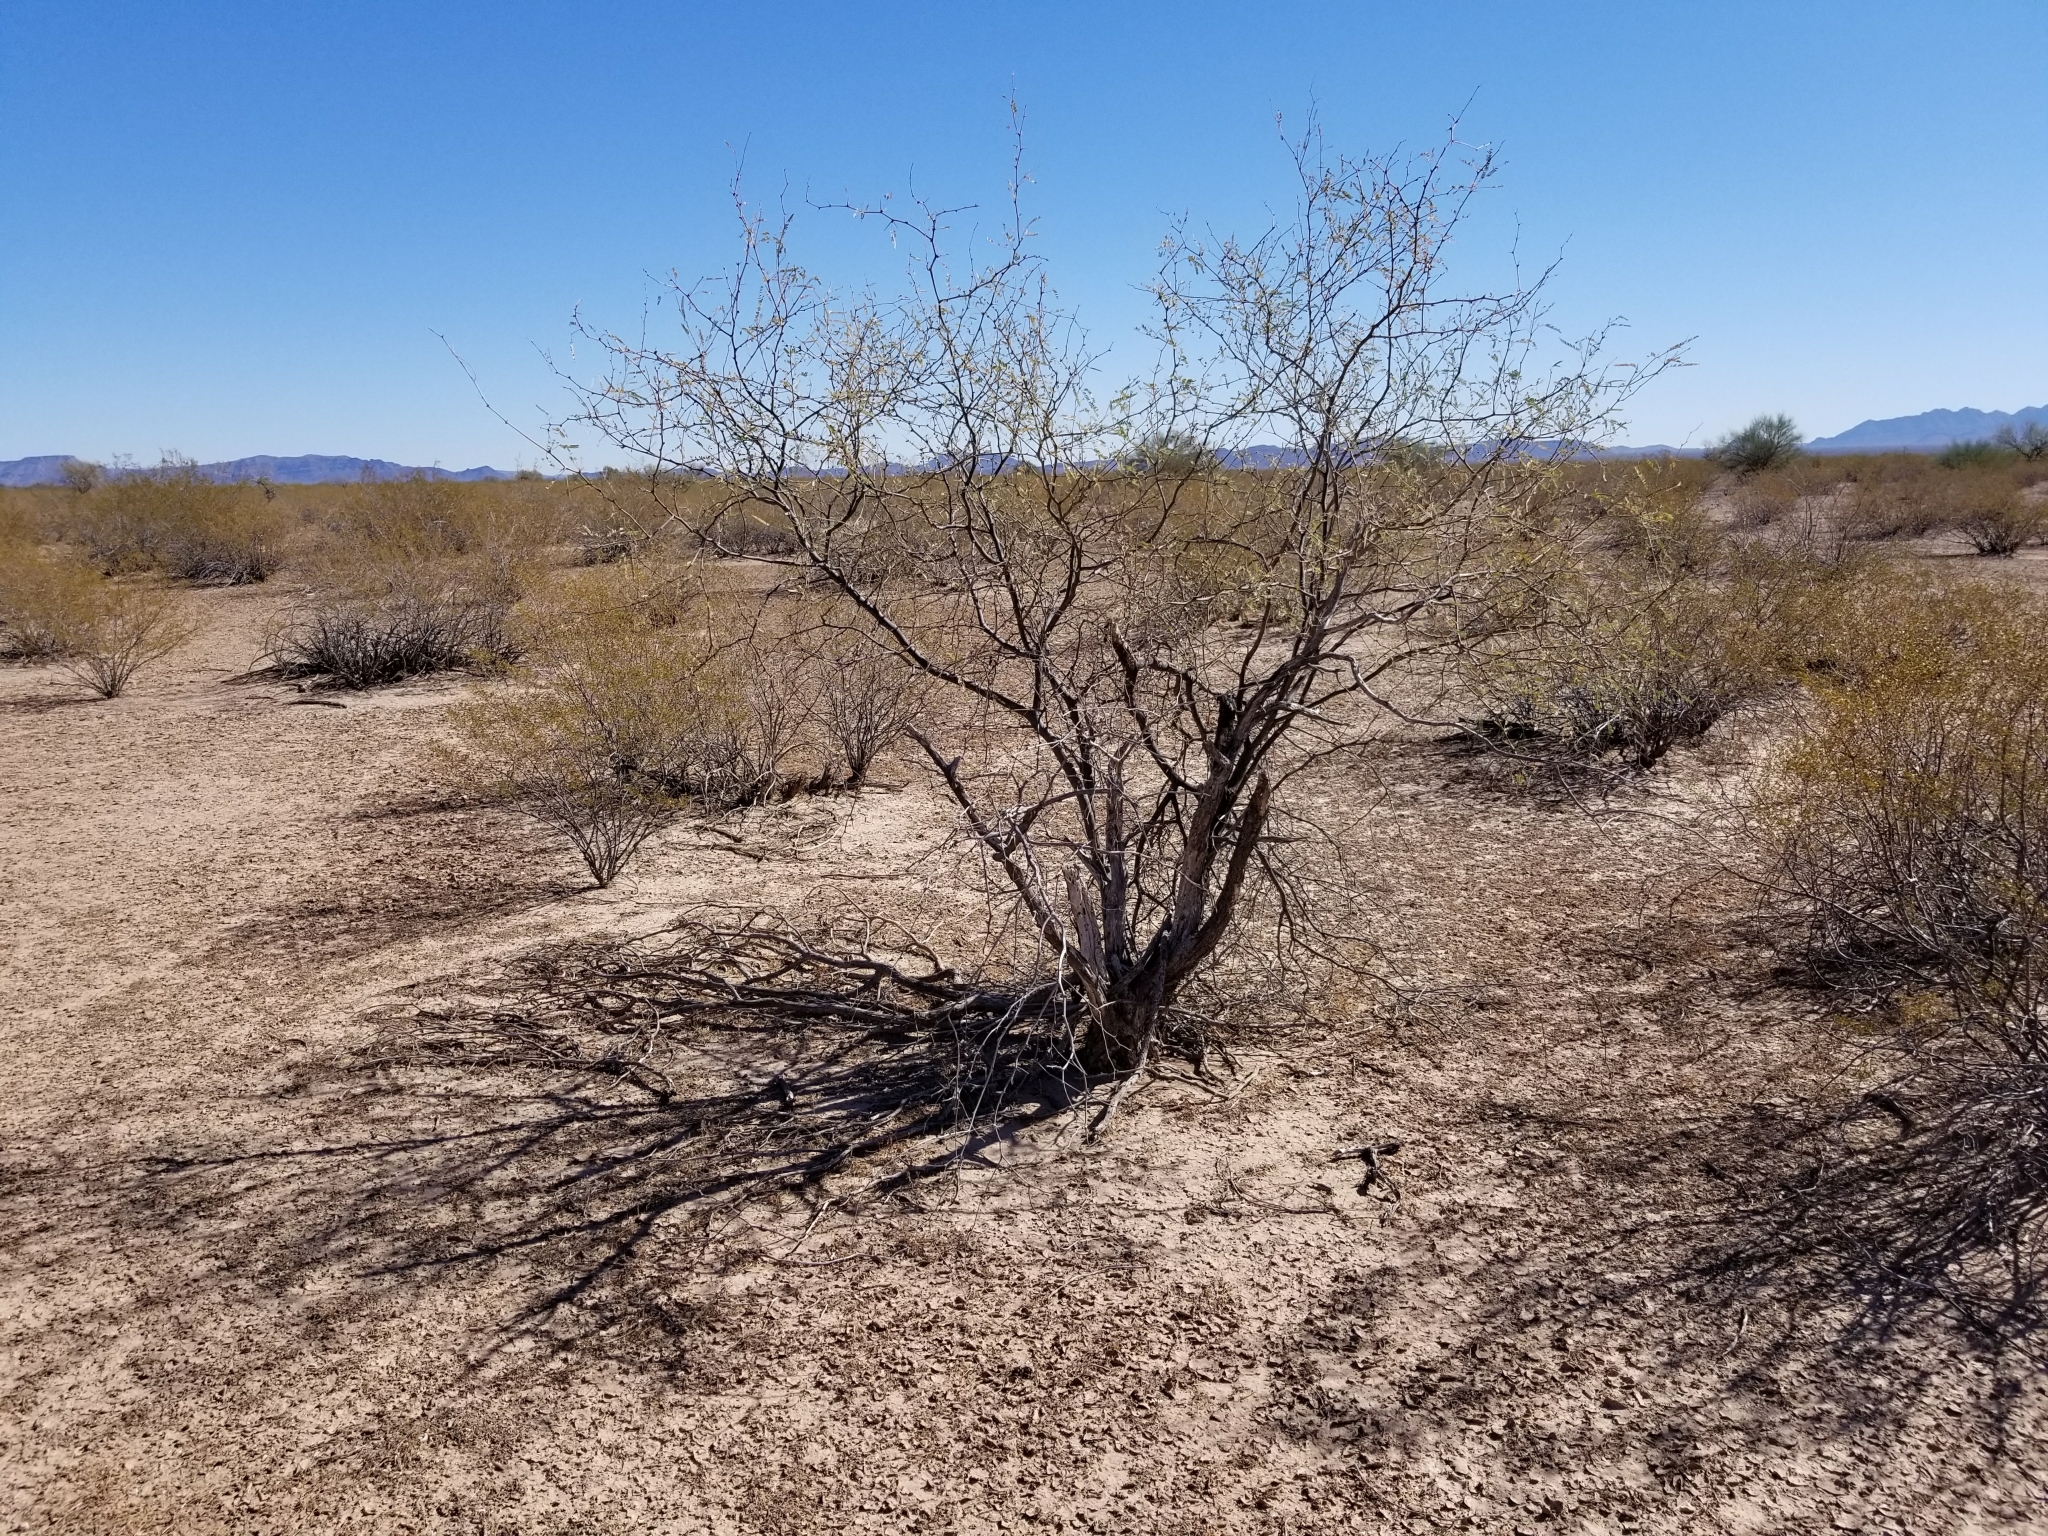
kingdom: Plantae
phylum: Tracheophyta
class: Magnoliopsida
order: Fabales
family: Fabaceae
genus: Prosopis
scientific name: Prosopis glandulosa
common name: Honey mesquite
